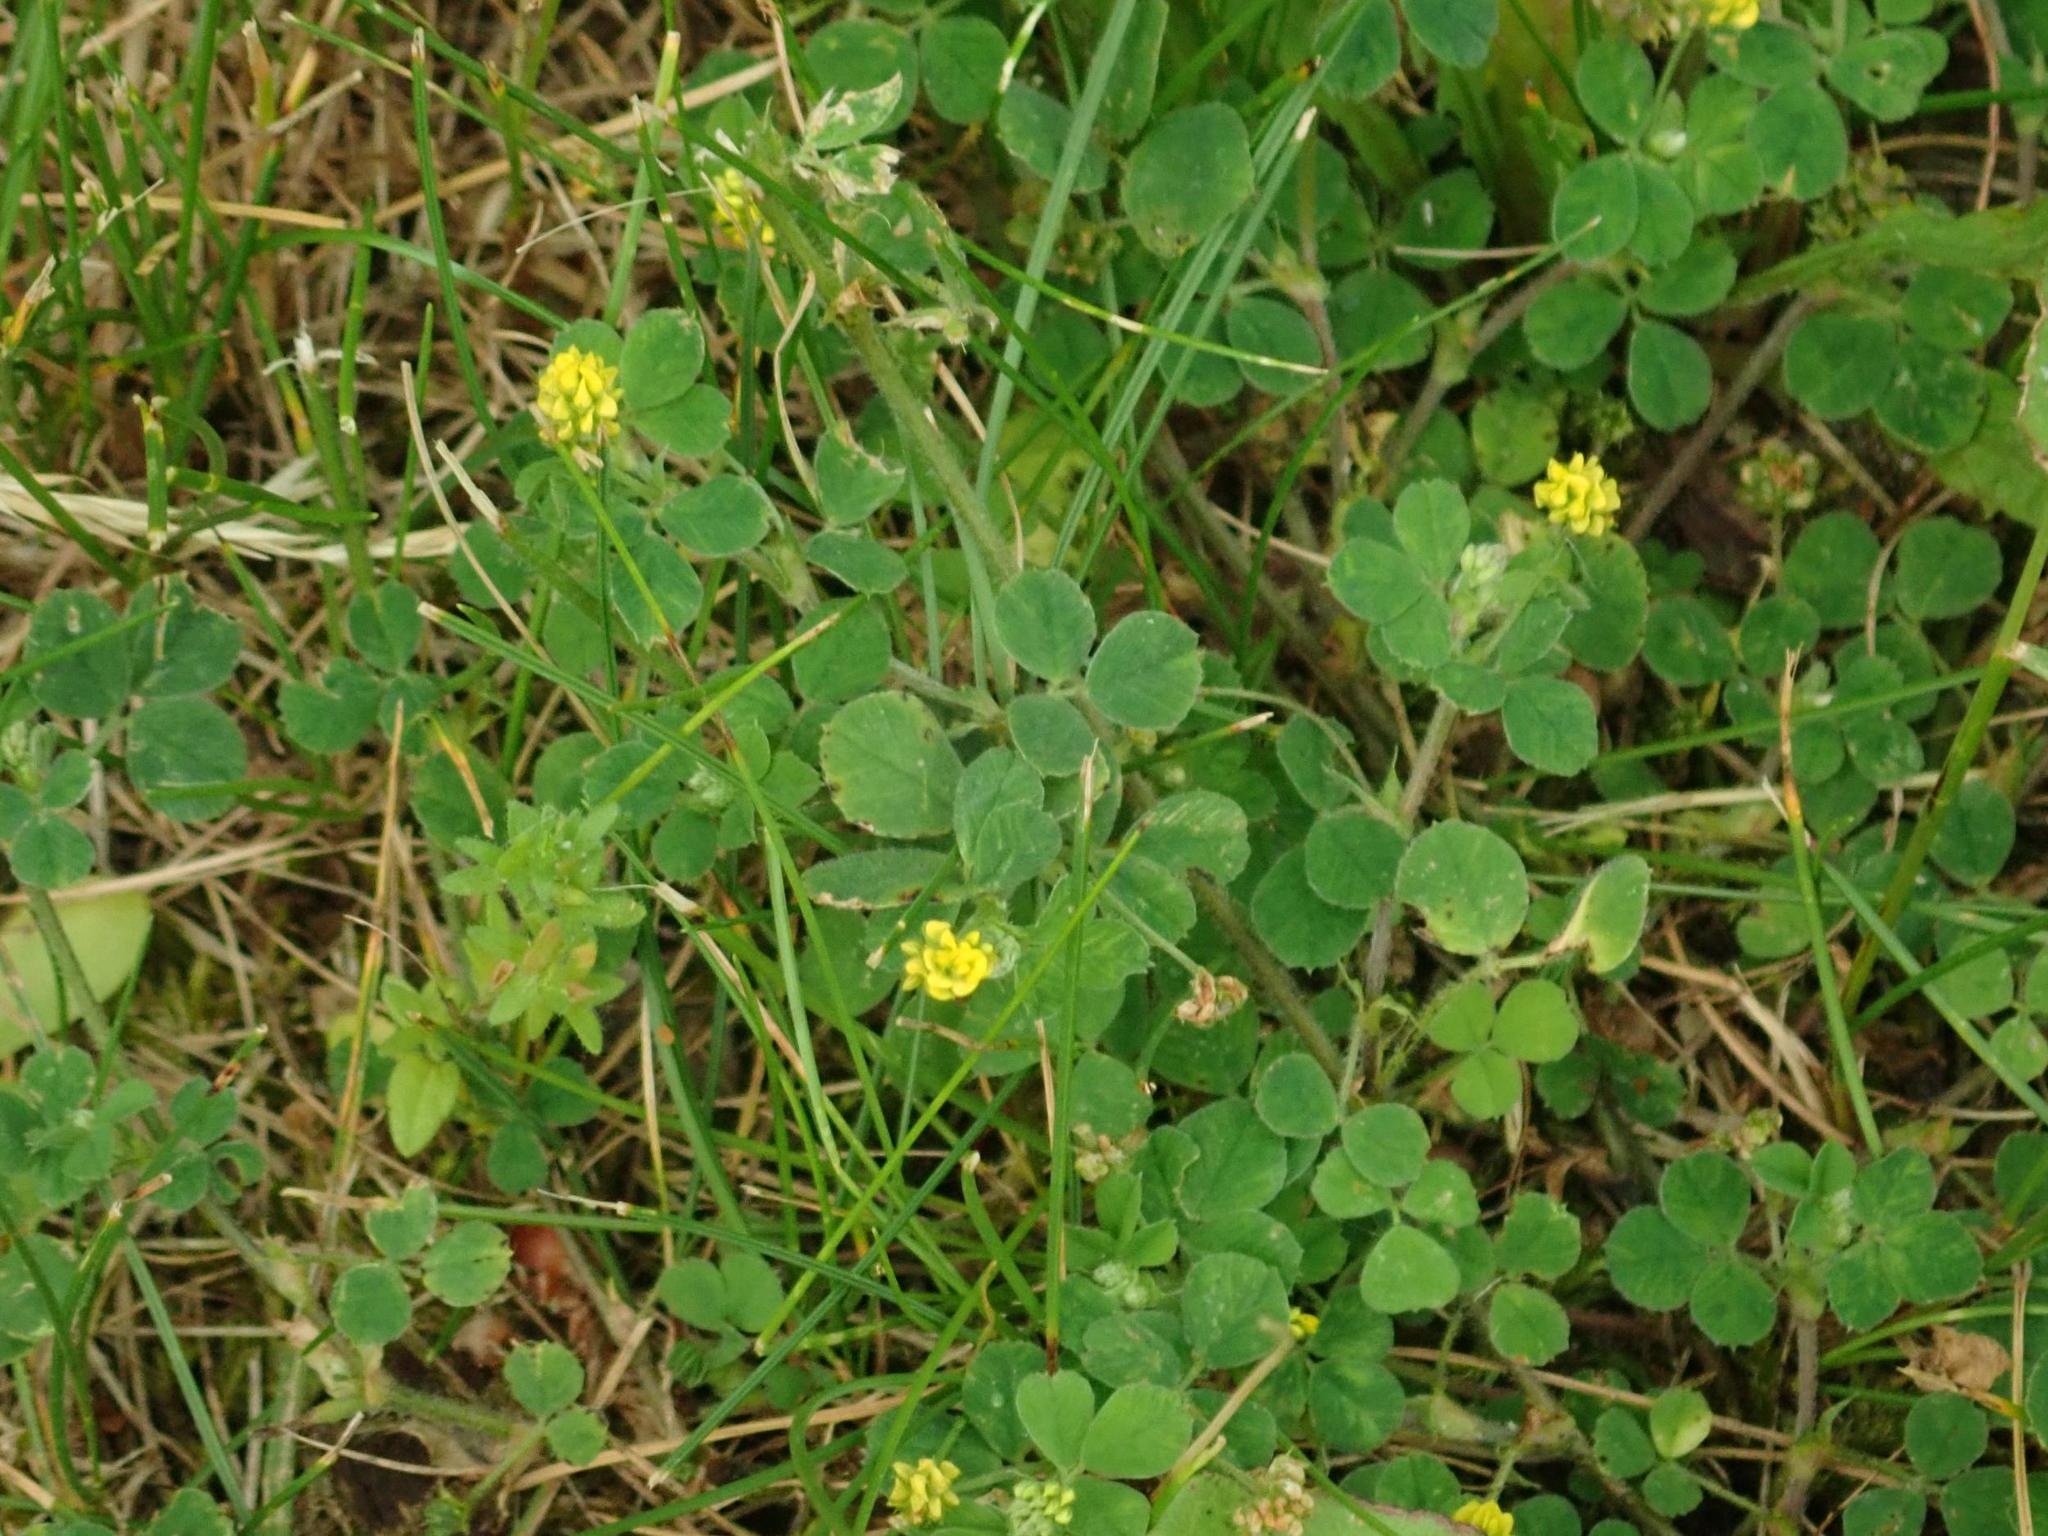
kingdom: Plantae
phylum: Tracheophyta
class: Magnoliopsida
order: Fabales
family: Fabaceae
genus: Medicago
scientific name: Medicago lupulina
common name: Black medick
